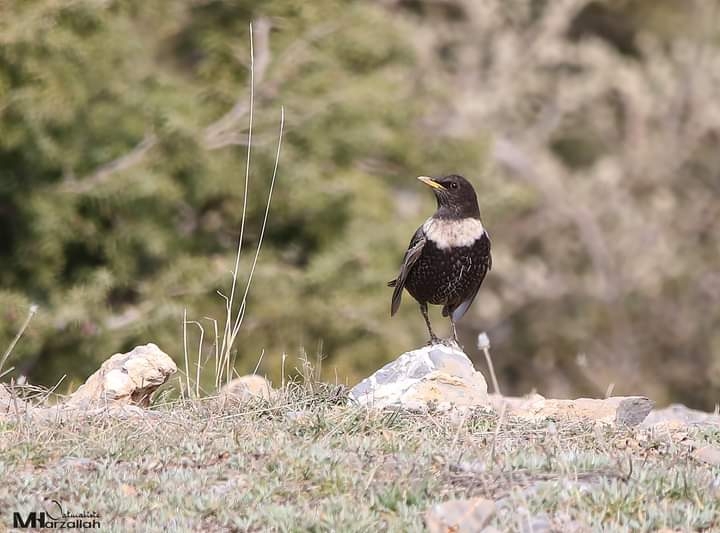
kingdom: Animalia
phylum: Chordata
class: Aves
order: Passeriformes
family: Turdidae
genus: Turdus
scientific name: Turdus torquatus
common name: Ring ouzel
